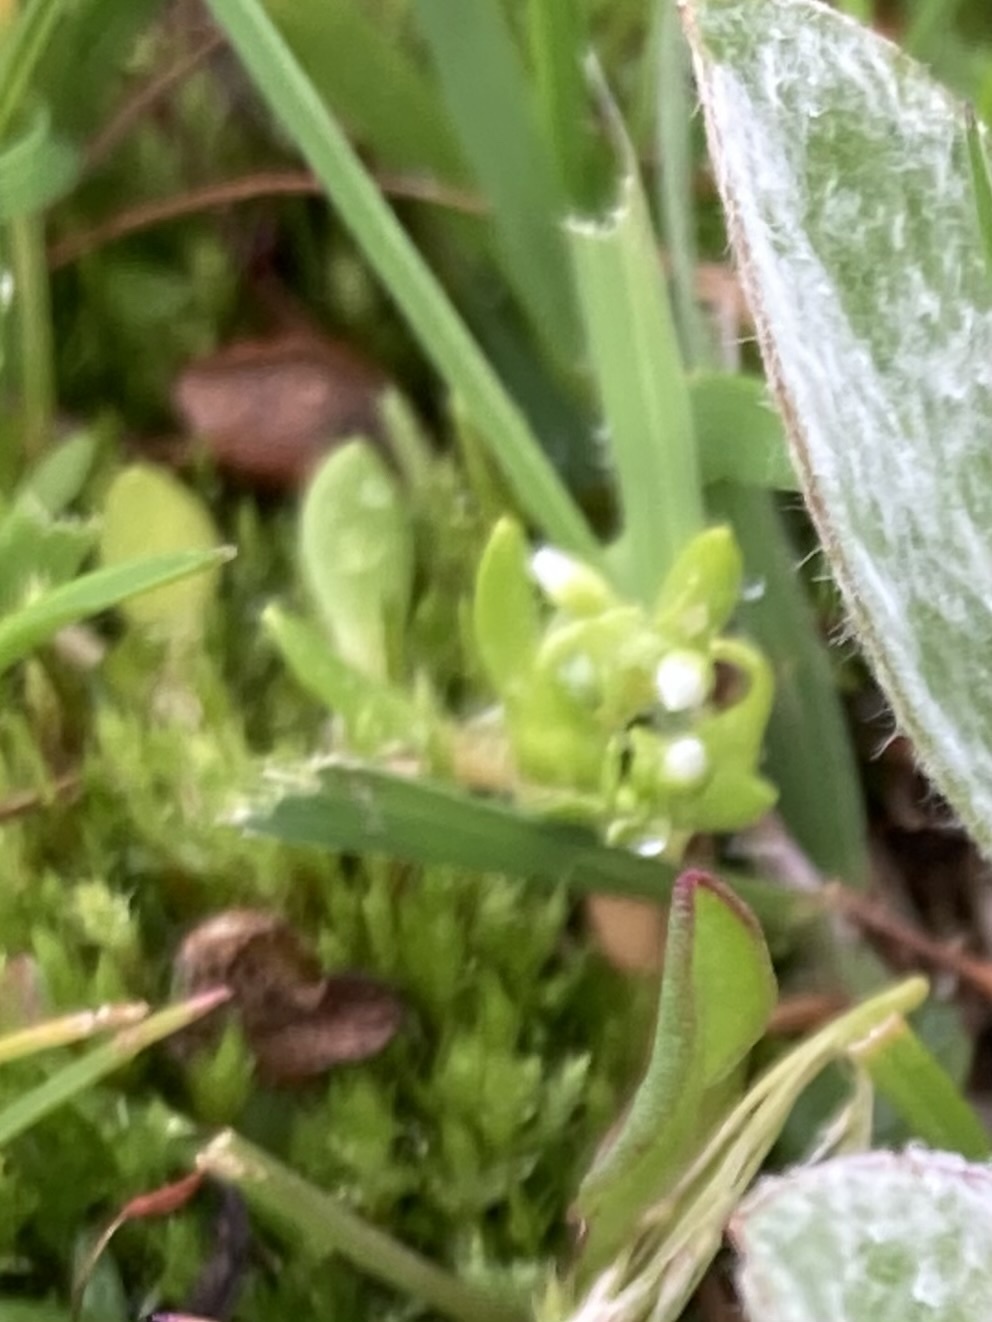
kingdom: Plantae
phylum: Tracheophyta
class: Magnoliopsida
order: Caryophyllales
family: Montiaceae
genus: Montia
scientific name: Montia fontana
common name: Blinks
